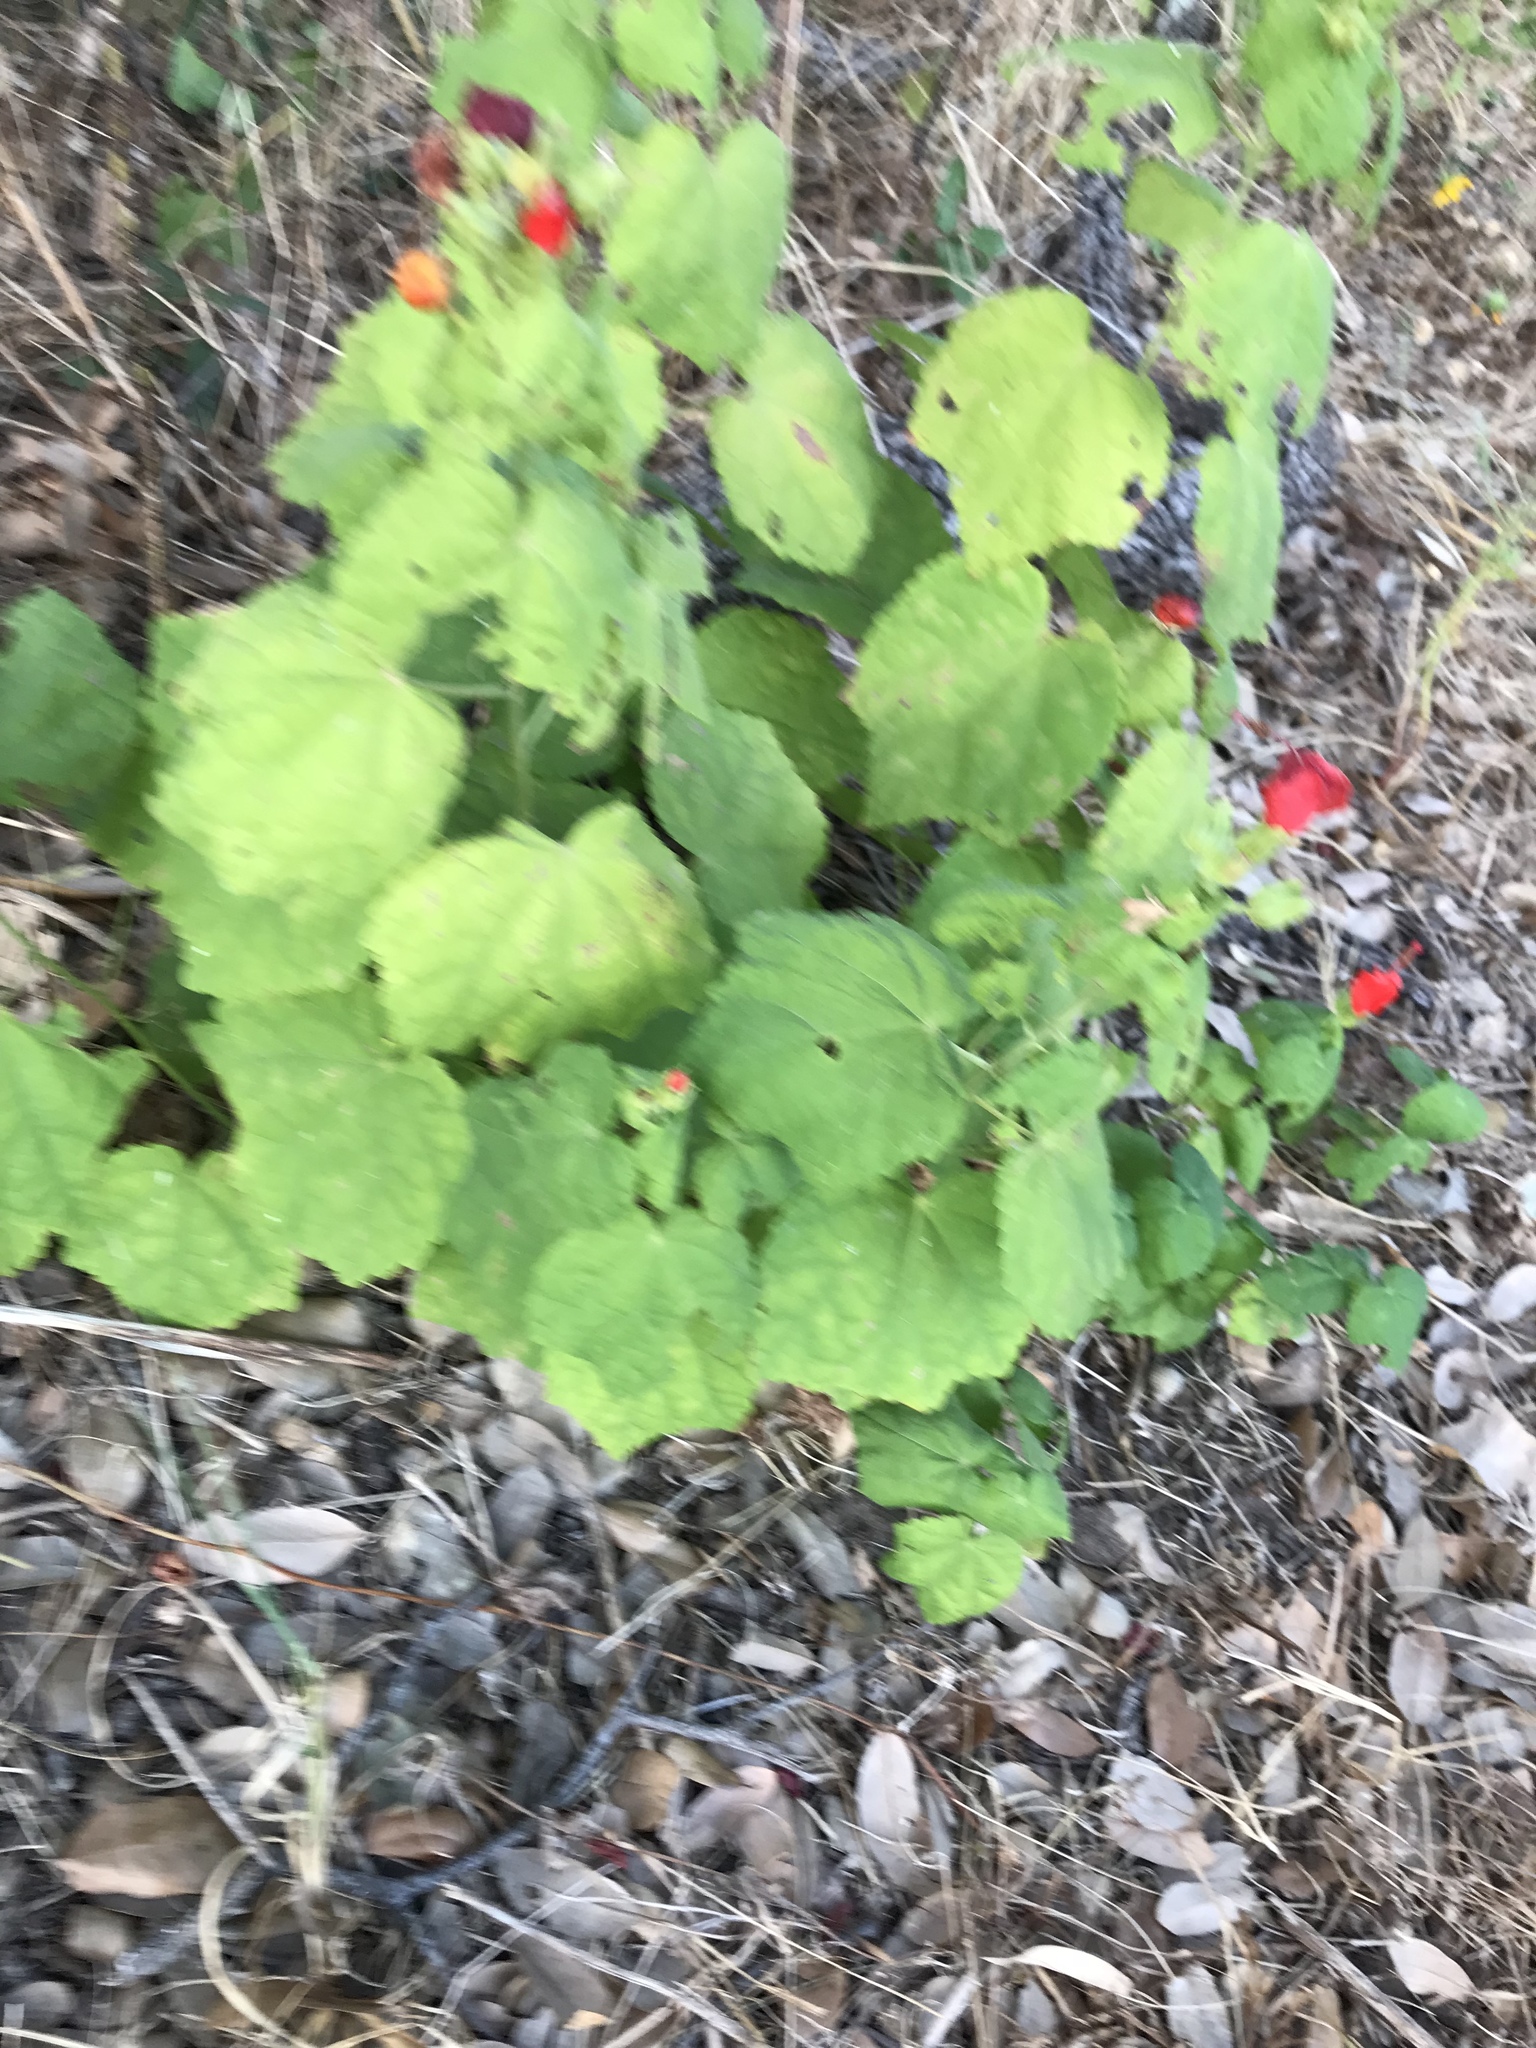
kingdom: Plantae
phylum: Tracheophyta
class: Magnoliopsida
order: Malvales
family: Malvaceae
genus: Malvaviscus
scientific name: Malvaviscus arboreus
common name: Wax mallow
